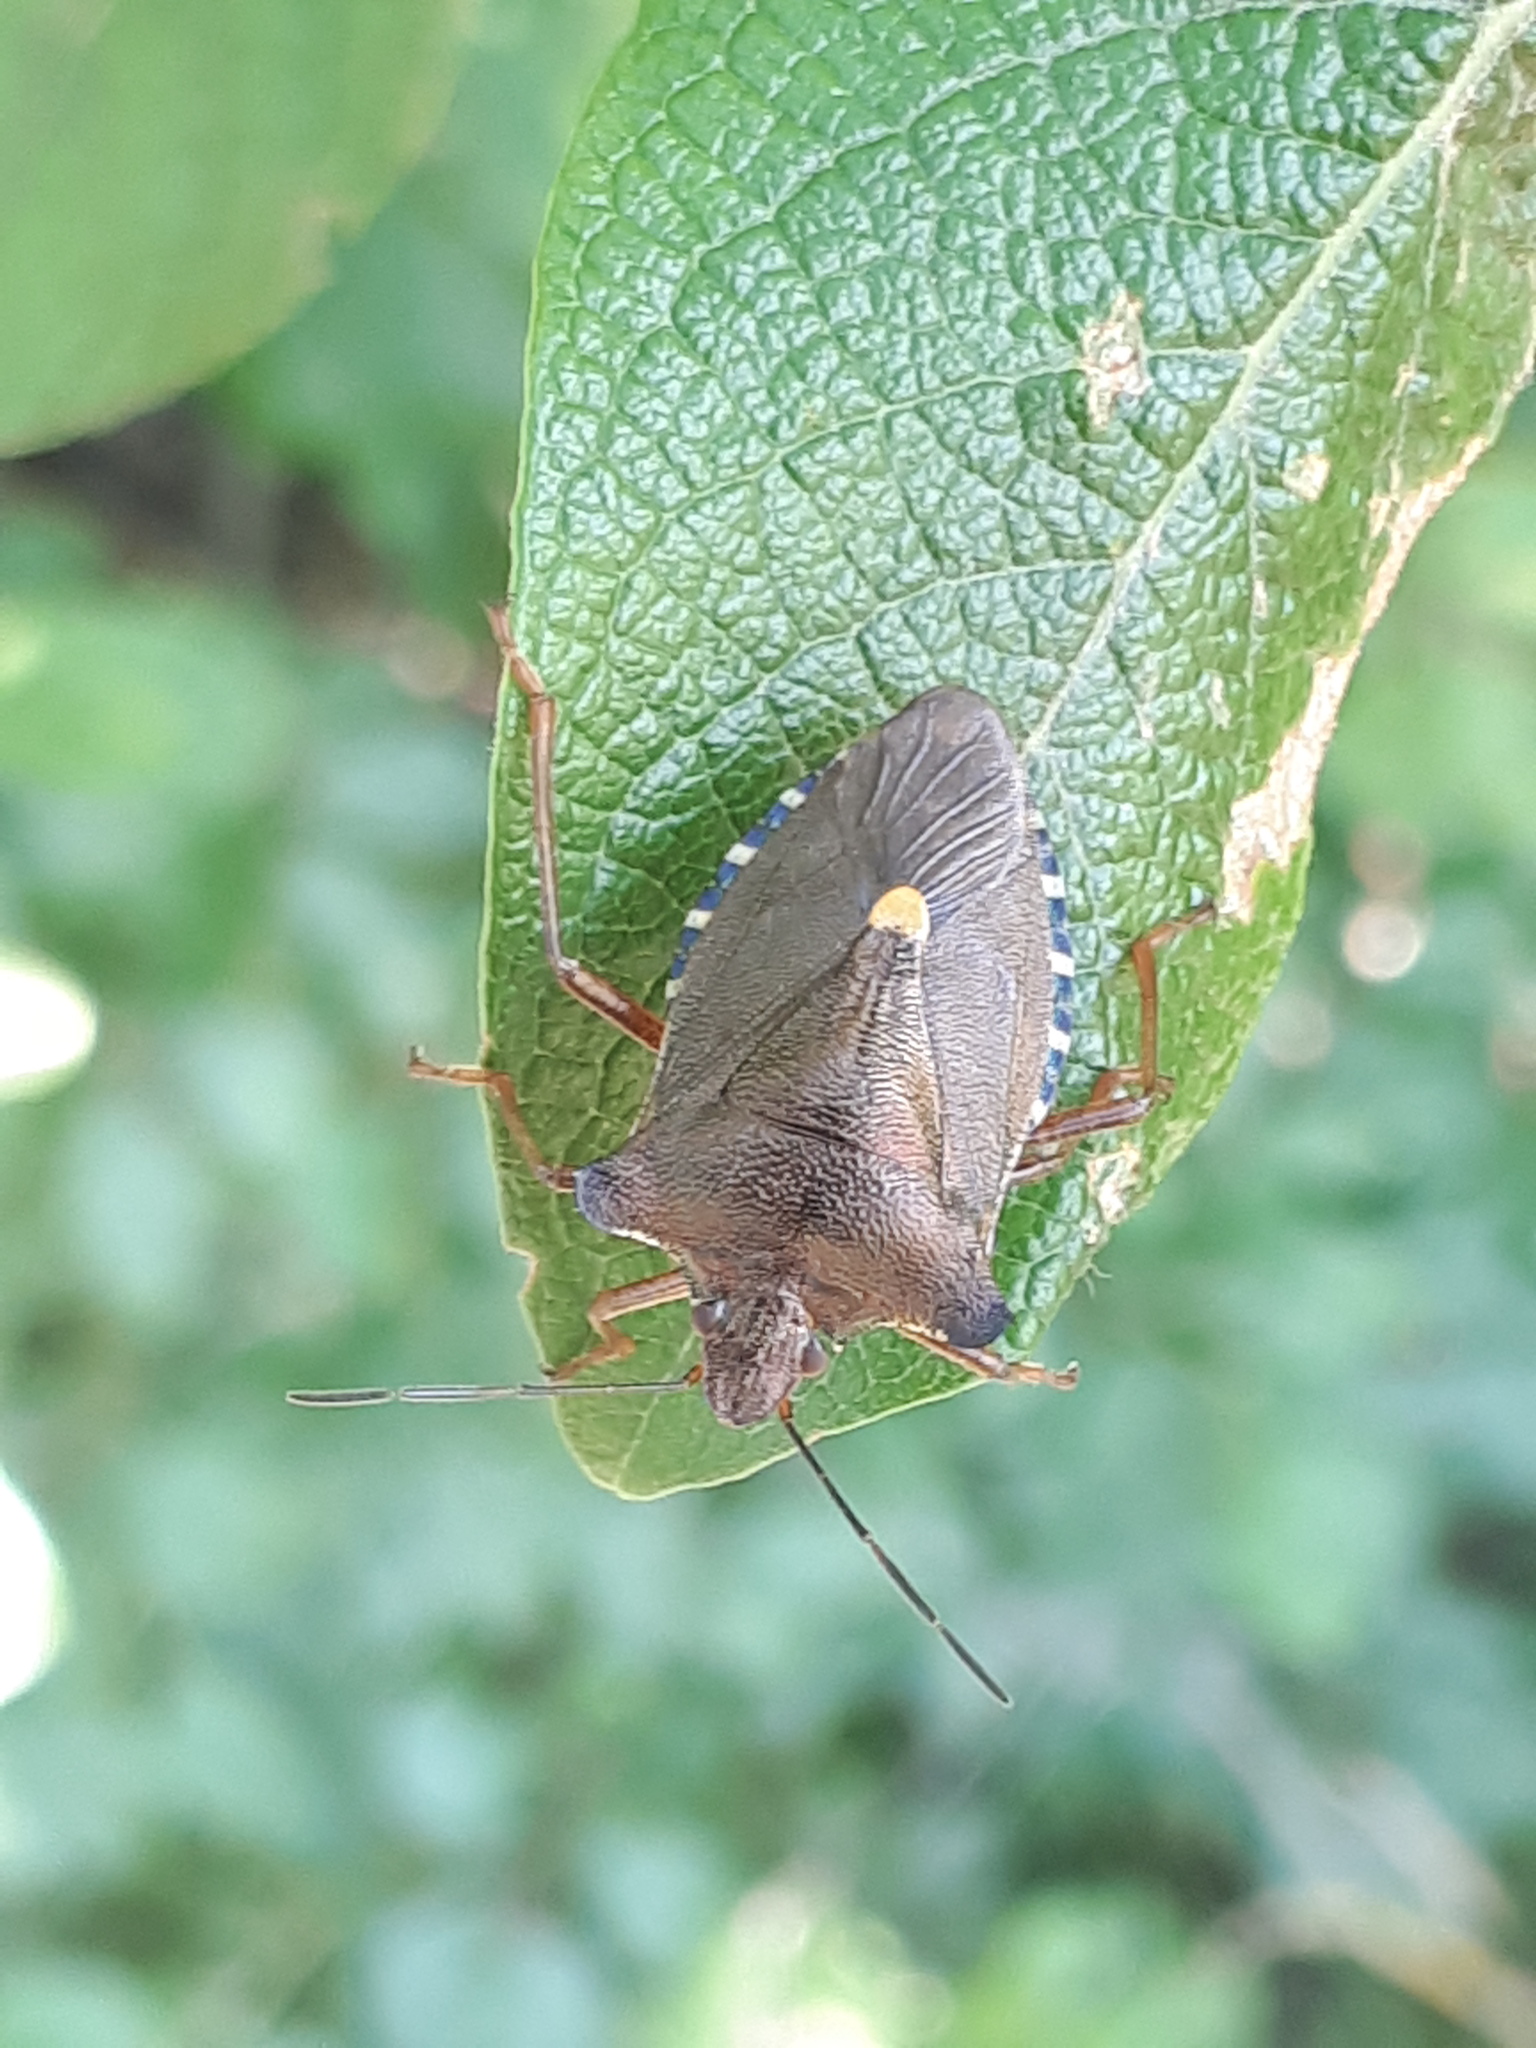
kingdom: Animalia
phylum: Arthropoda
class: Insecta
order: Hemiptera
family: Pentatomidae
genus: Pentatoma
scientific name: Pentatoma rufipes
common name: Forest bug
